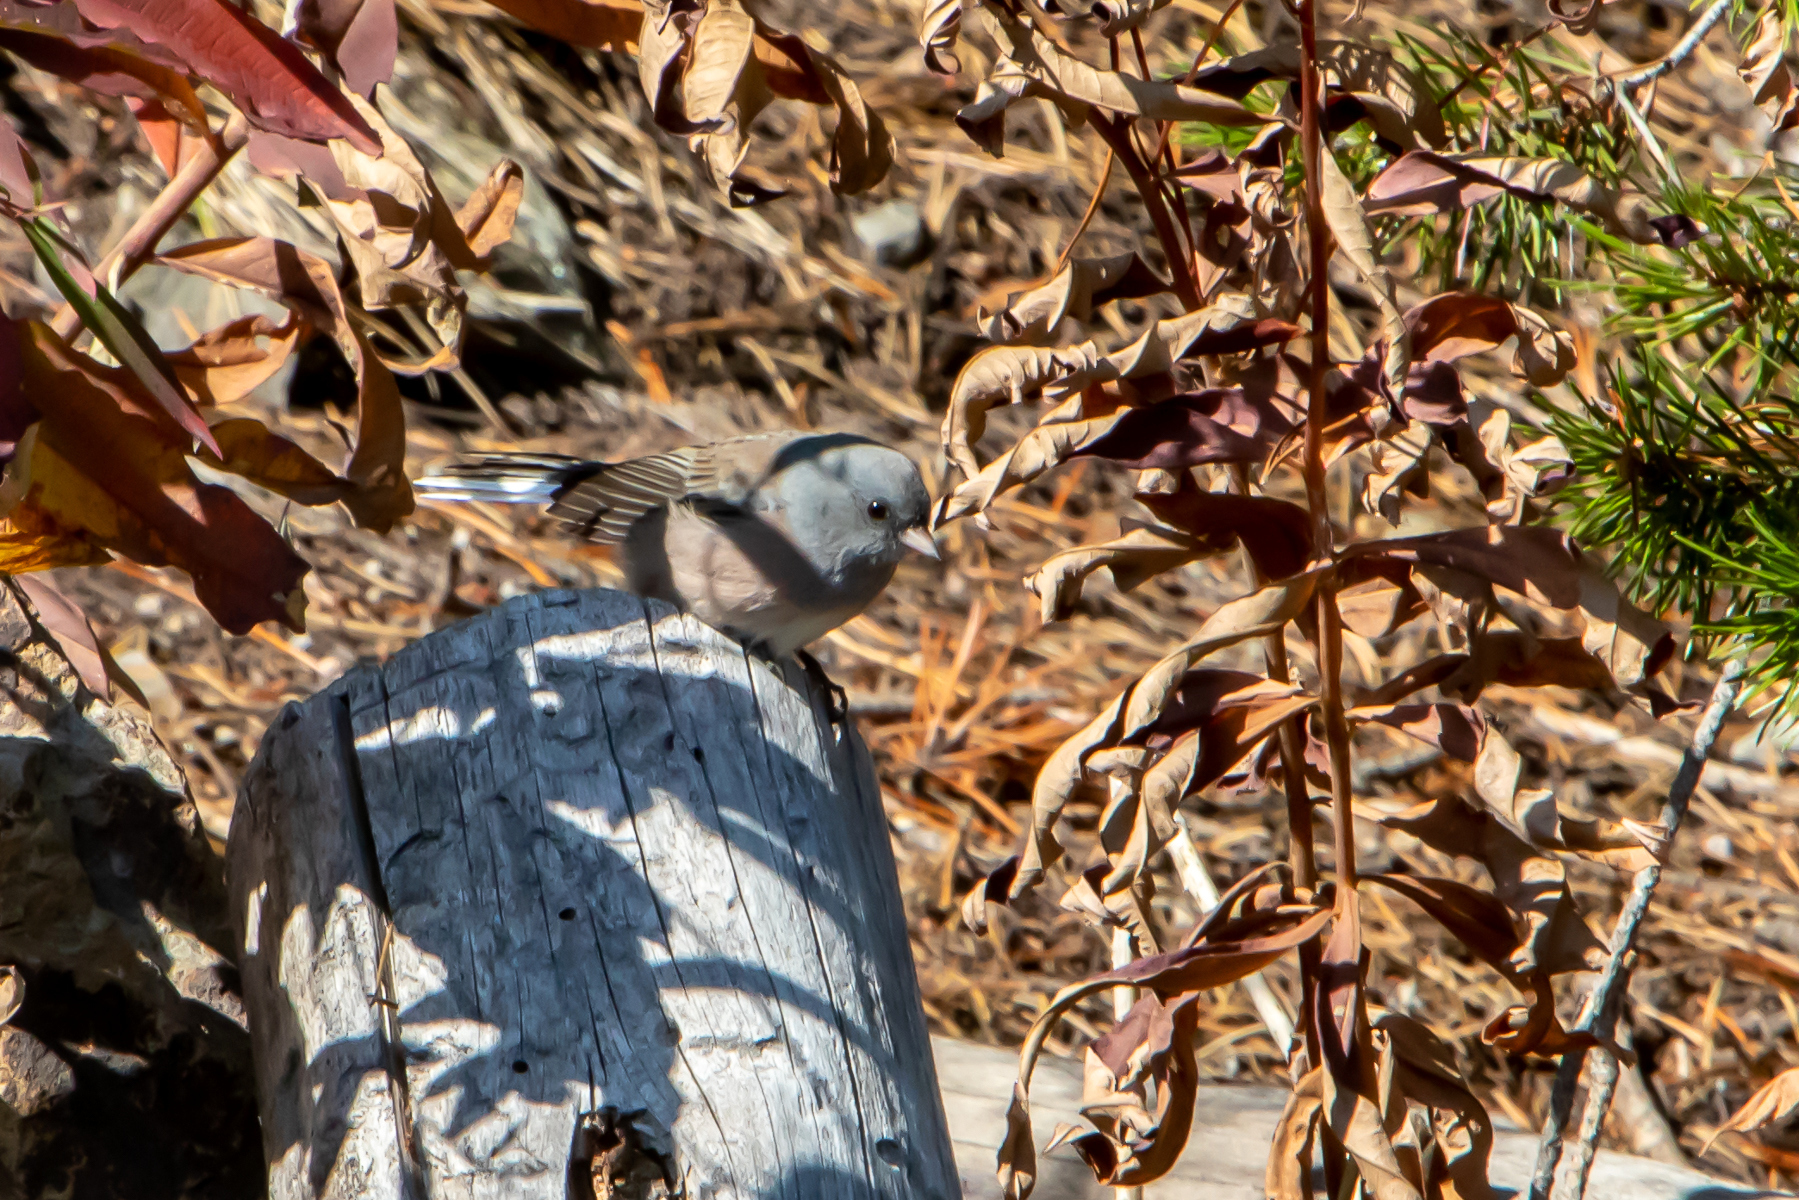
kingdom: Animalia
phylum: Chordata
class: Aves
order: Passeriformes
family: Passerellidae
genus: Junco
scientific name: Junco hyemalis
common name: Dark-eyed junco
